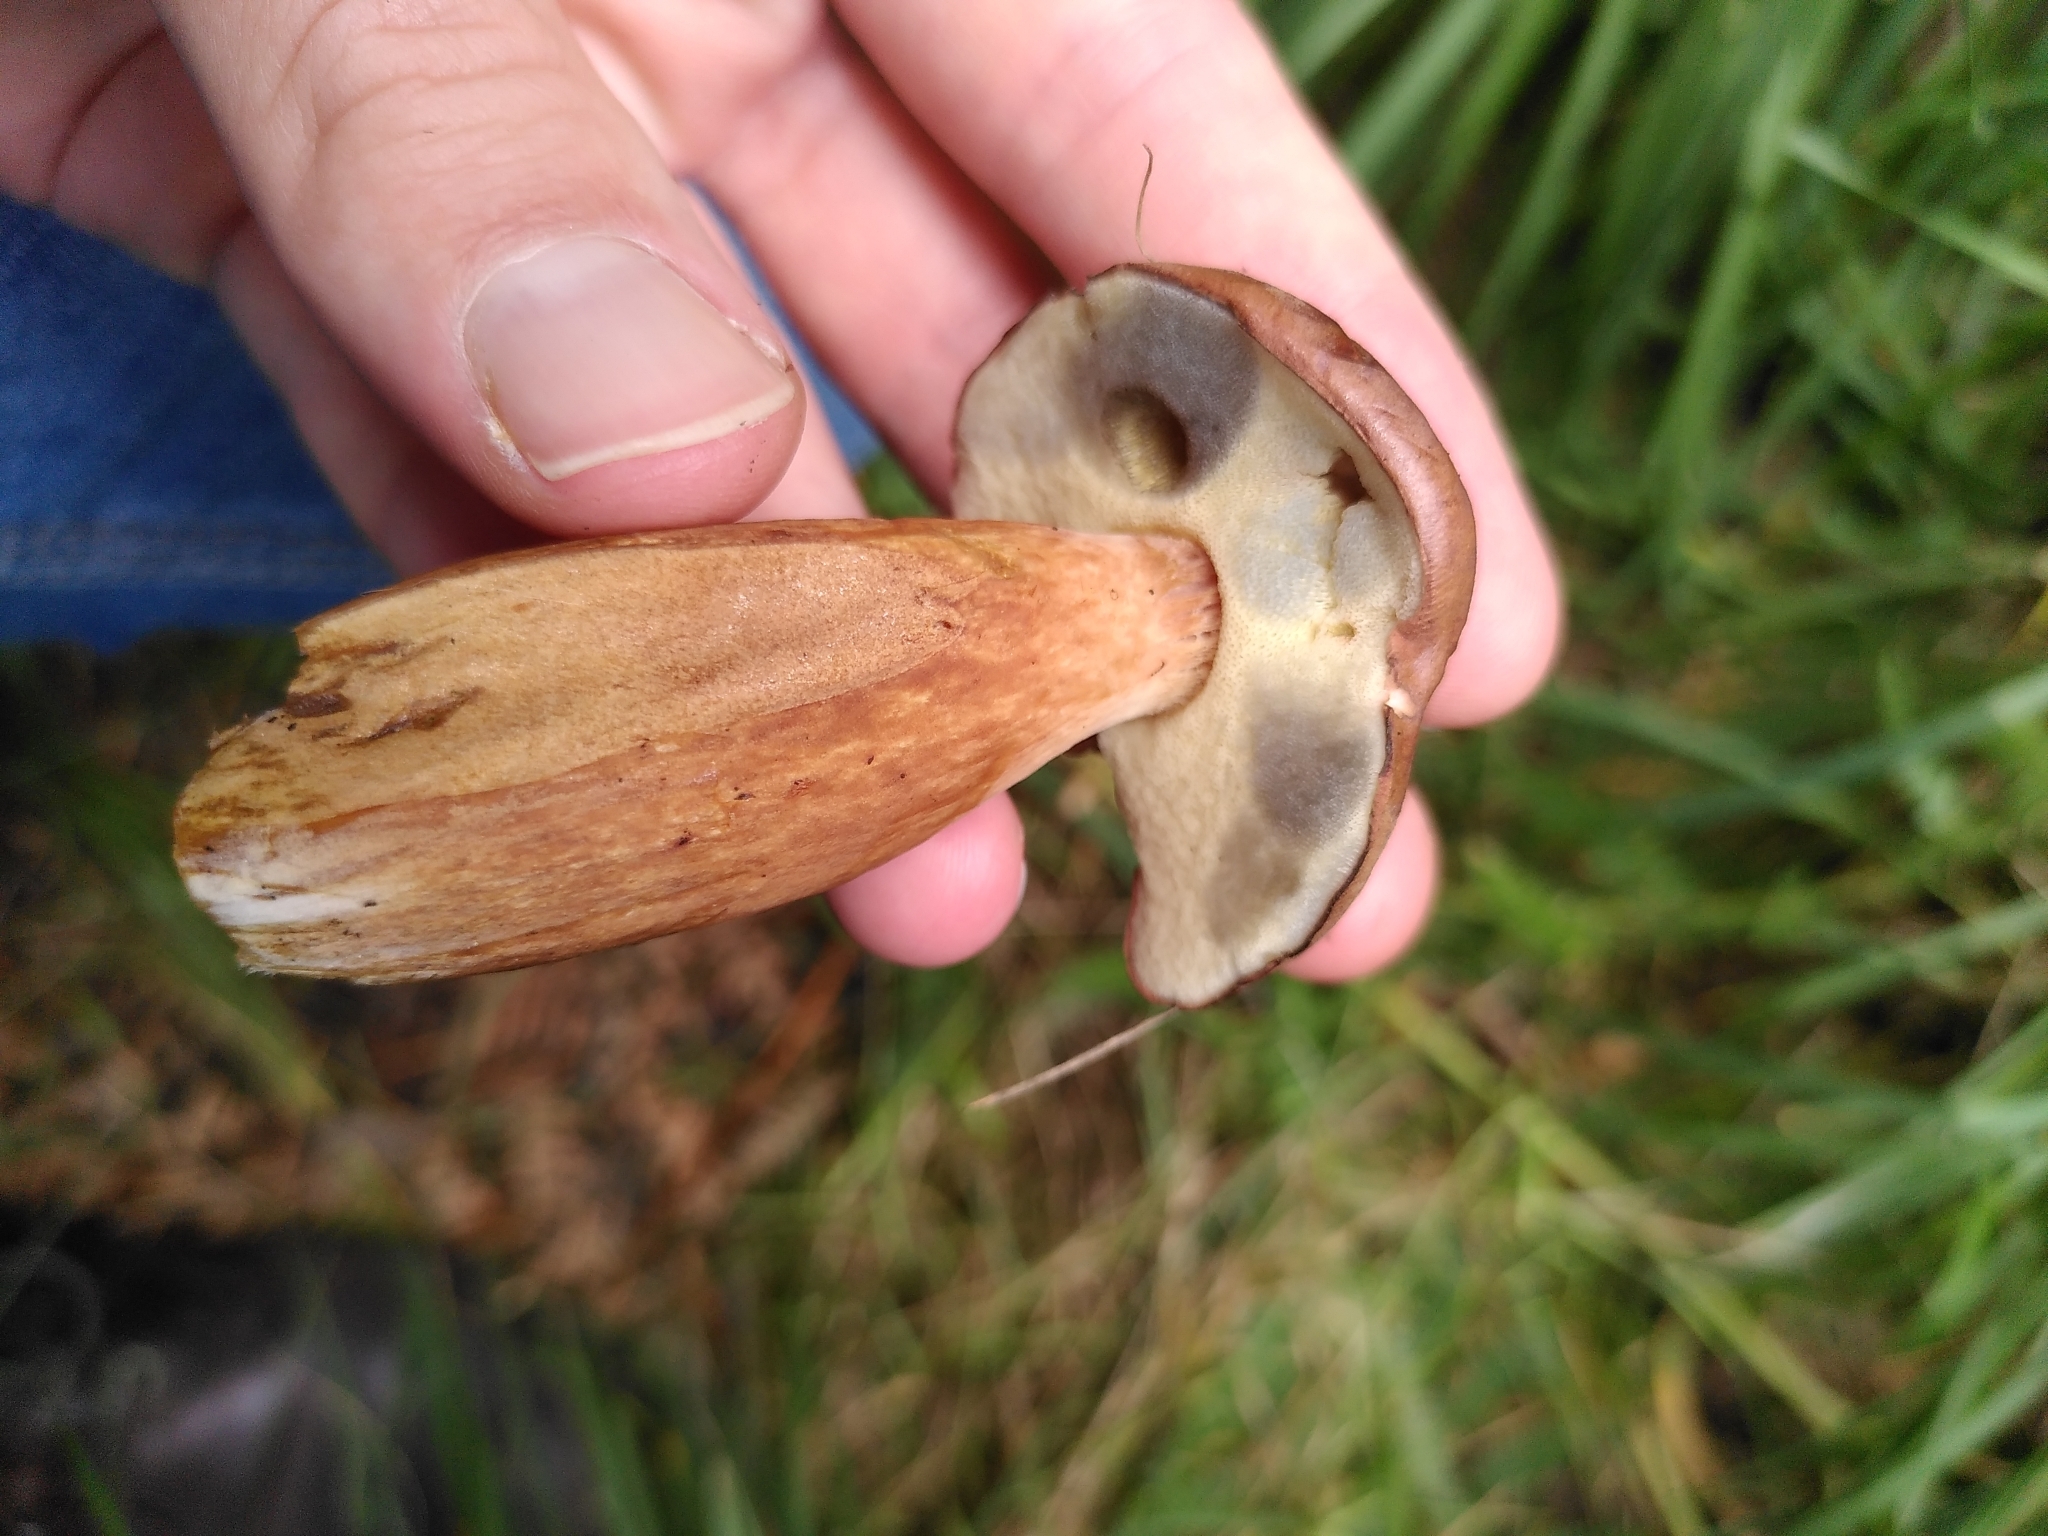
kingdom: Fungi
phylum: Basidiomycota
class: Agaricomycetes
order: Boletales
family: Boletaceae
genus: Imleria
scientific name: Imleria badia
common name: Bay bolete
